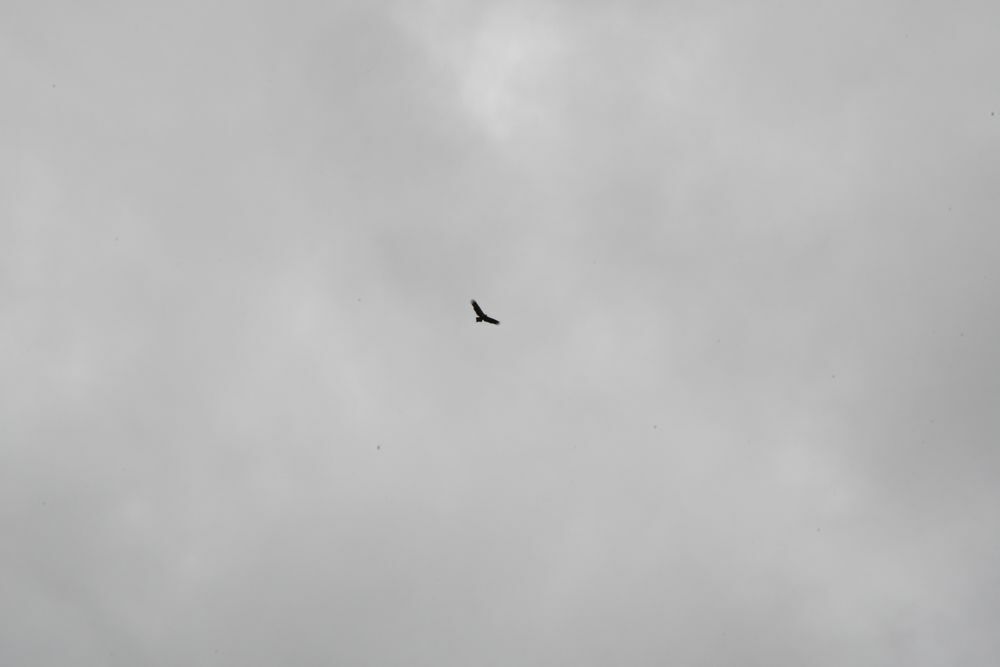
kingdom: Animalia
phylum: Chordata
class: Aves
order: Accipitriformes
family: Accipitridae
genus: Aquila
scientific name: Aquila audax
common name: Wedge-tailed eagle
